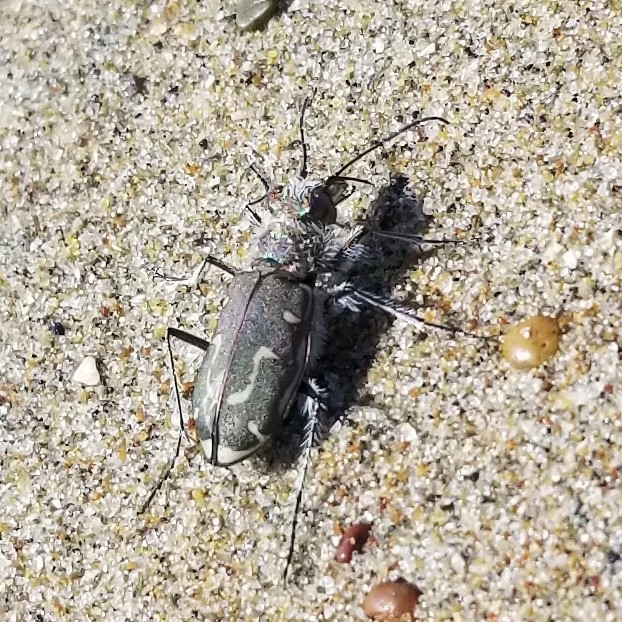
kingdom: Animalia
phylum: Arthropoda
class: Insecta
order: Coleoptera
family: Carabidae
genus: Cicindela
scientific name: Cicindela hirticollis
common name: Hairy-necked tiger beetle
